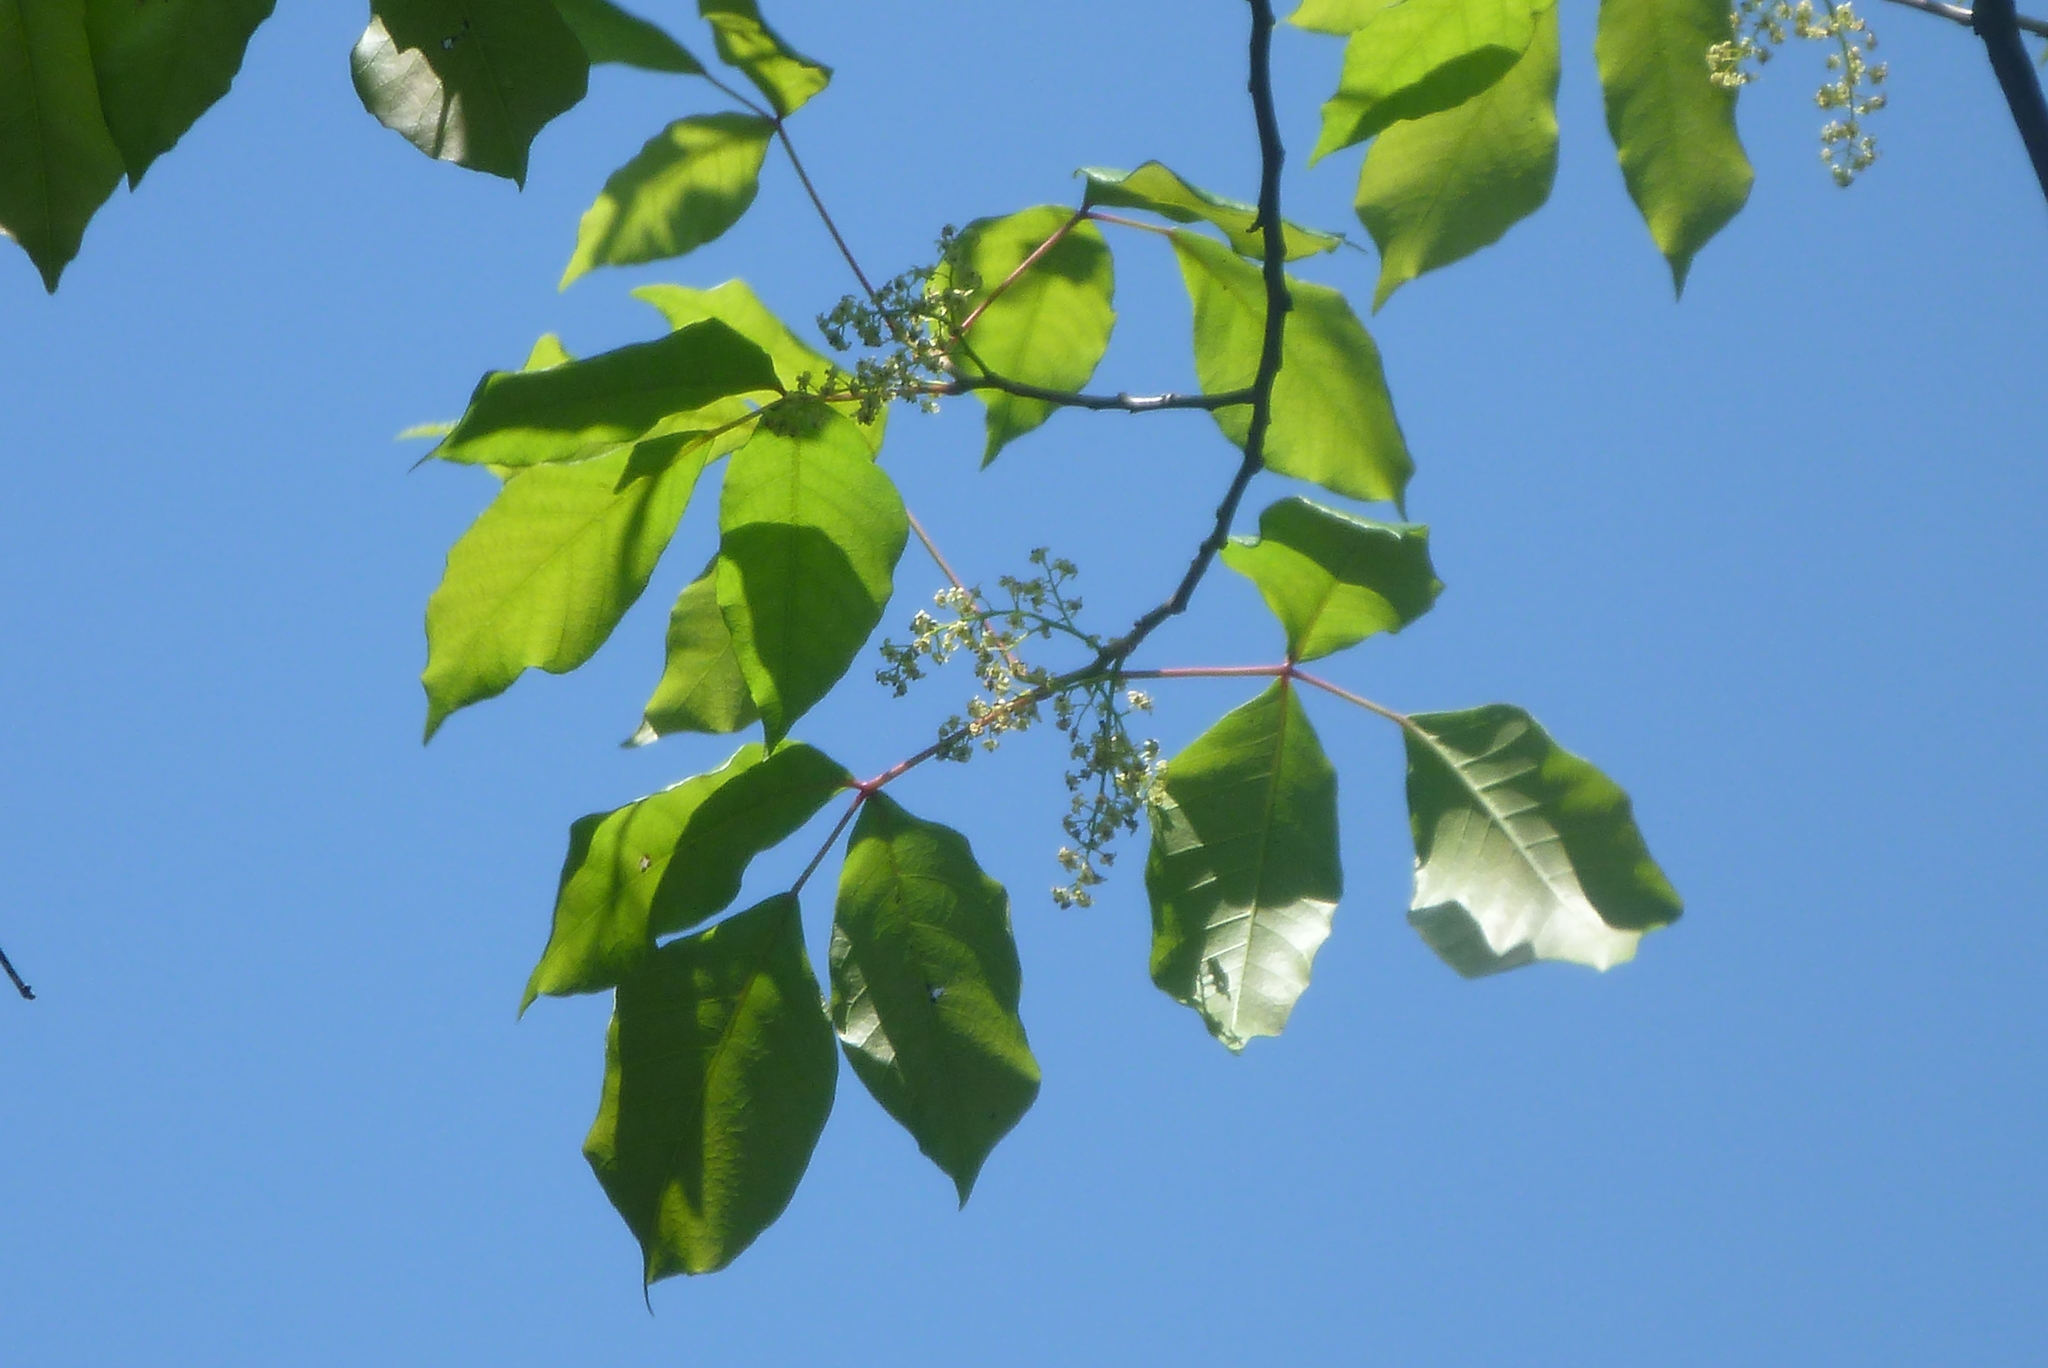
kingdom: Plantae
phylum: Tracheophyta
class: Magnoliopsida
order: Sapindales
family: Anacardiaceae
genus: Toxicodendron
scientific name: Toxicodendron radicans
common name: Poison ivy
